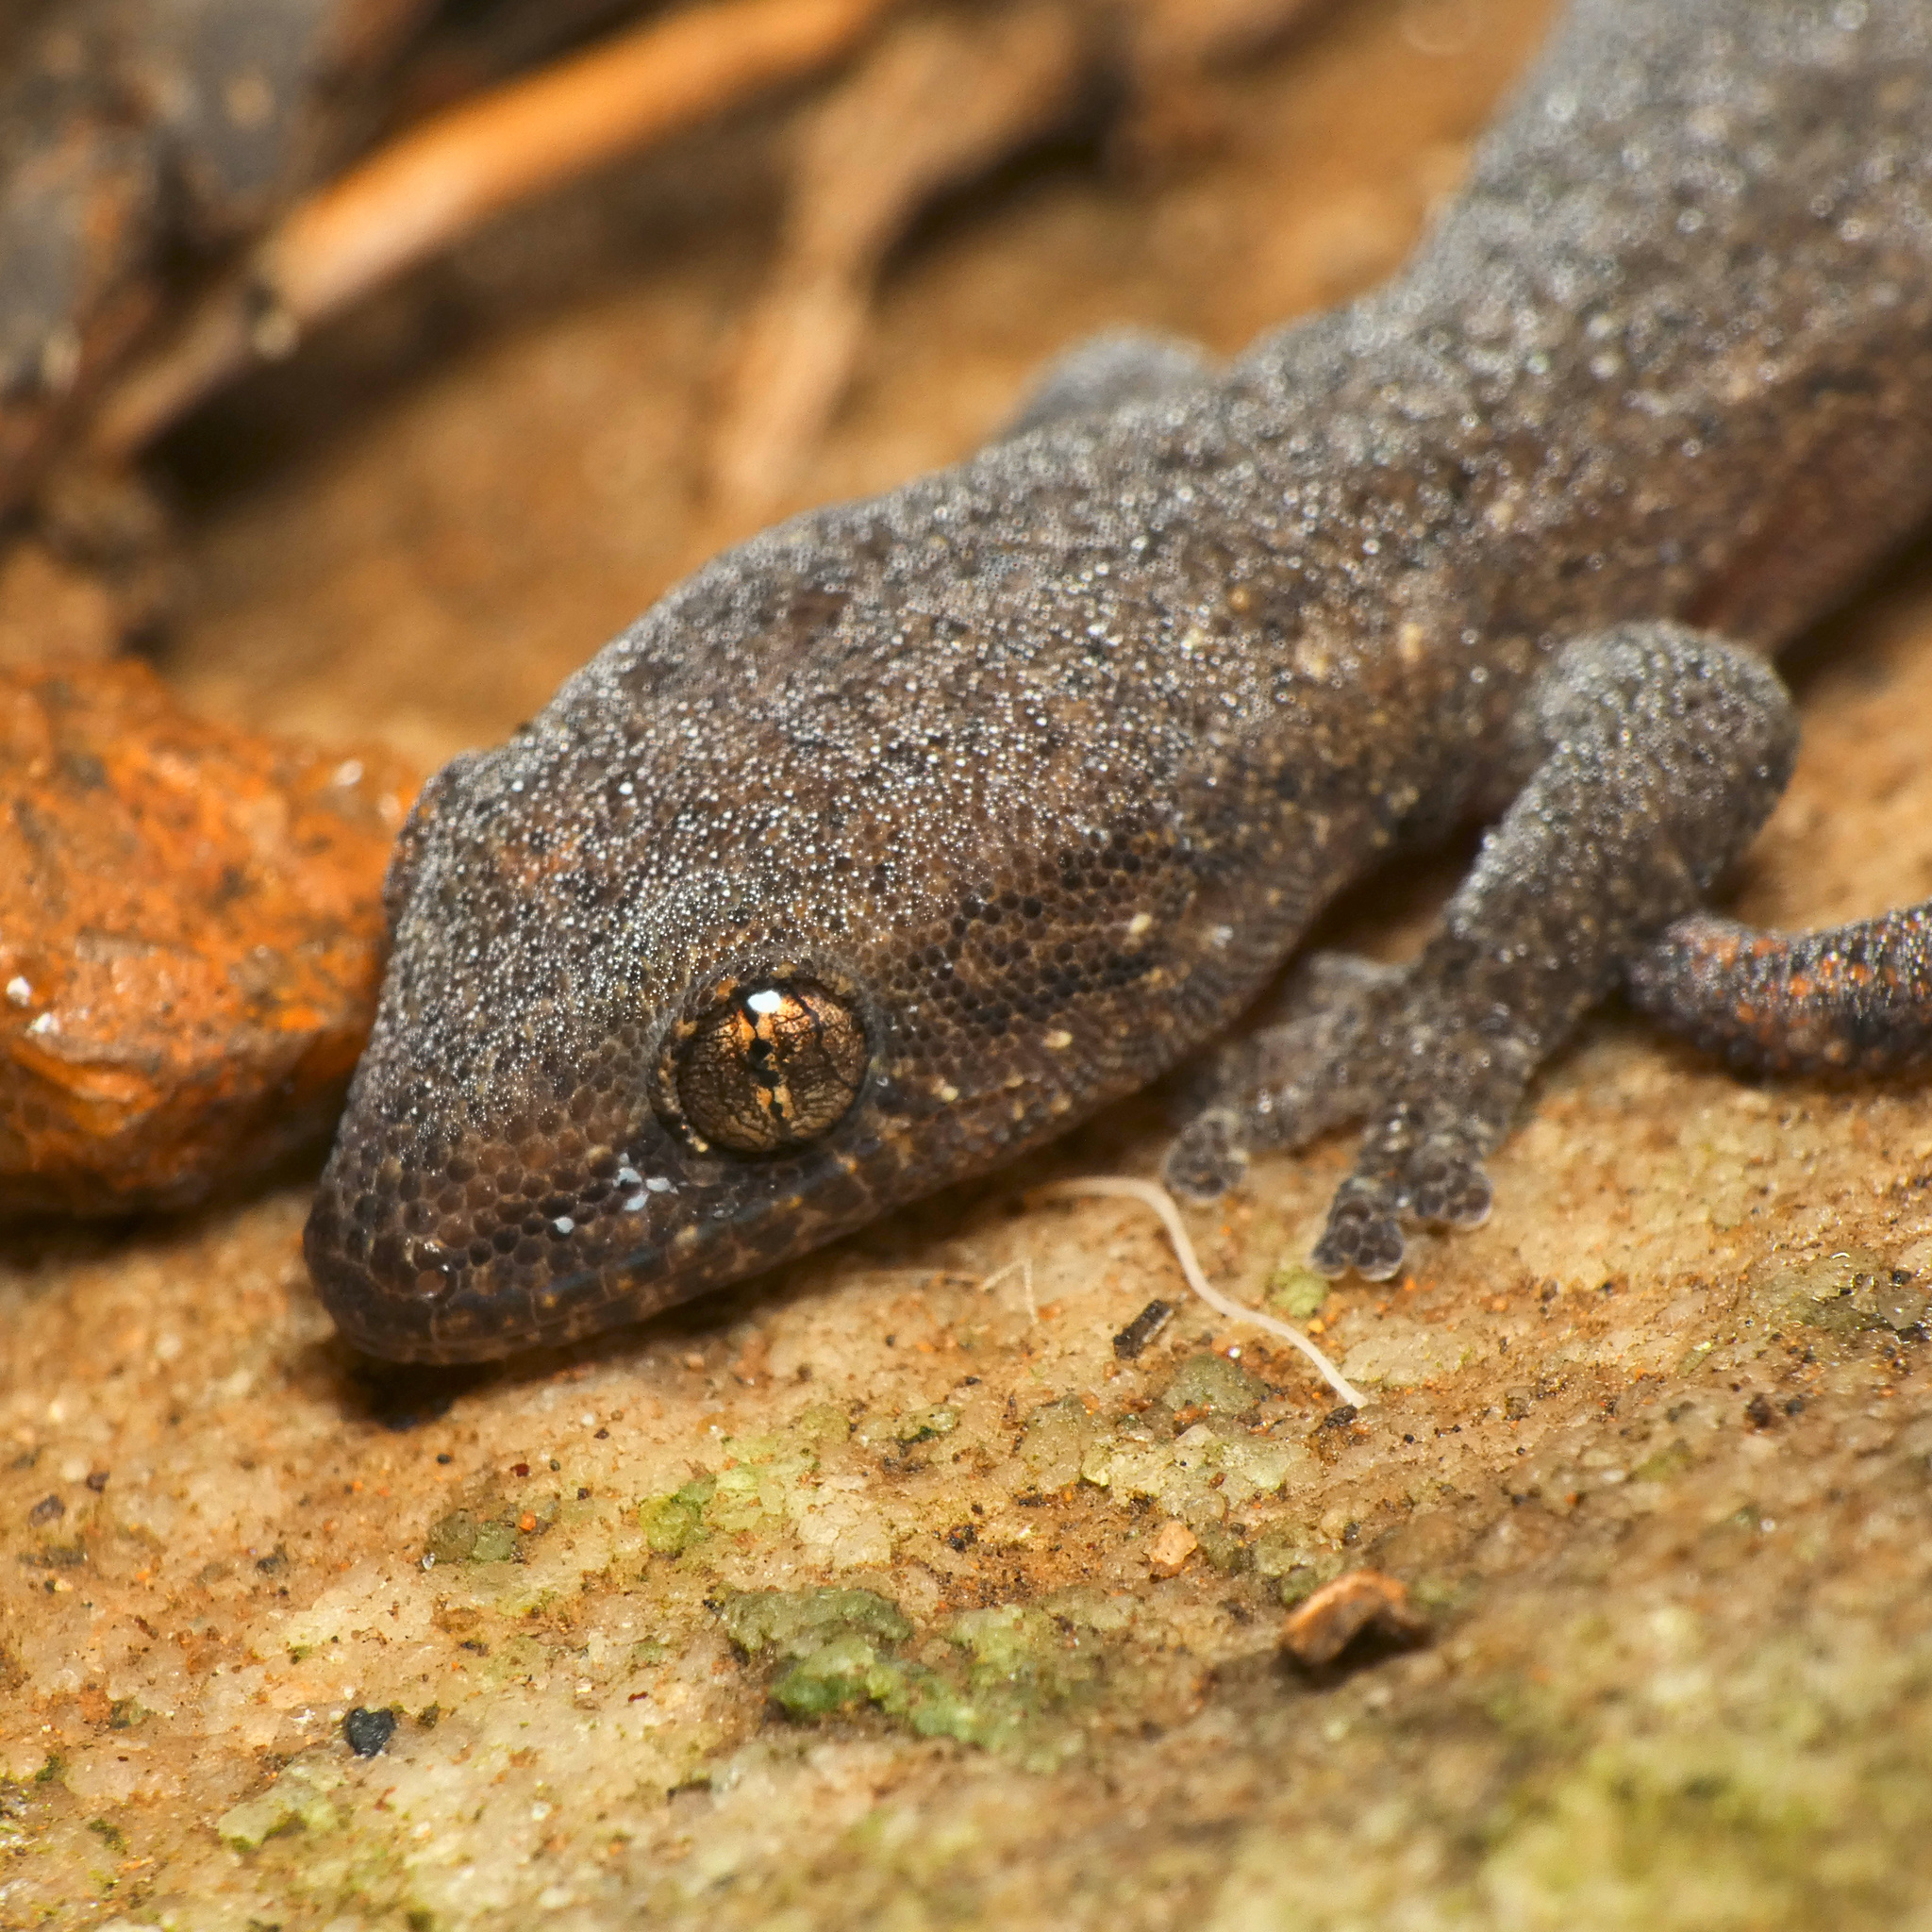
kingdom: Animalia
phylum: Chordata
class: Squamata
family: Gekkonidae
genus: Afrogecko
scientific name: Afrogecko porphyreus
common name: Marbled leaf-toed gecko
